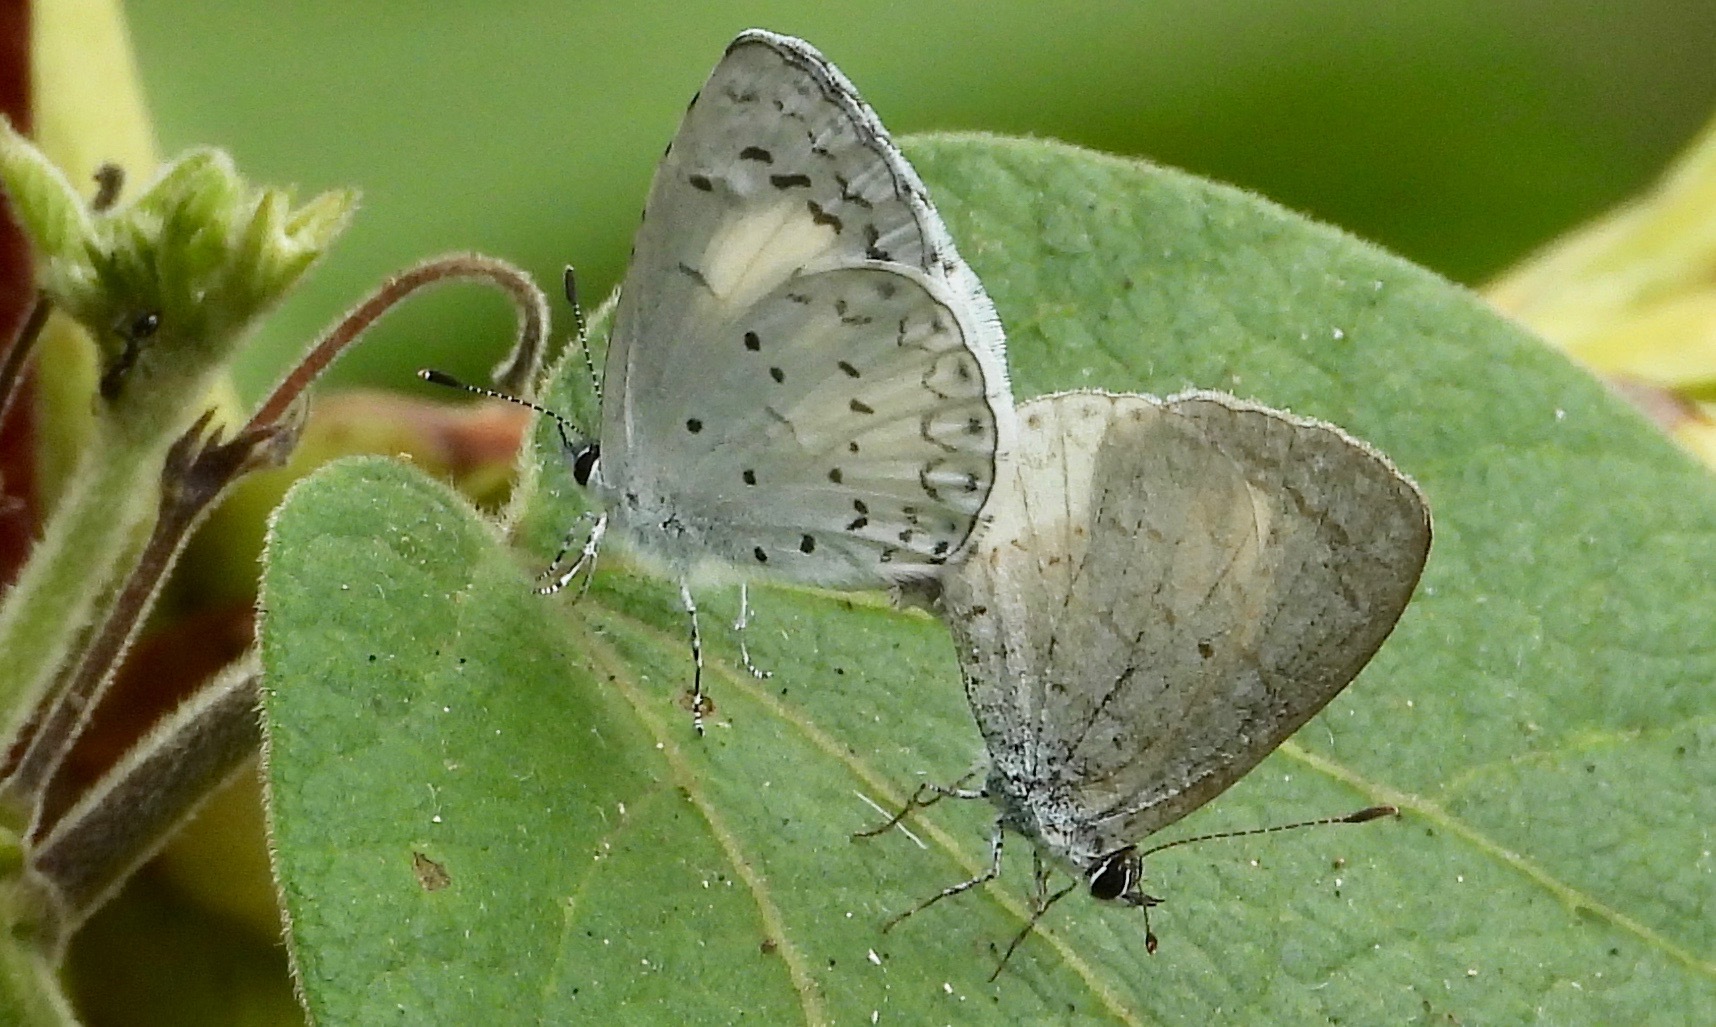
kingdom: Animalia
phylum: Arthropoda
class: Insecta
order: Lepidoptera
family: Lycaenidae
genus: Celastrina
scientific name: Celastrina ladon
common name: Spring azure
